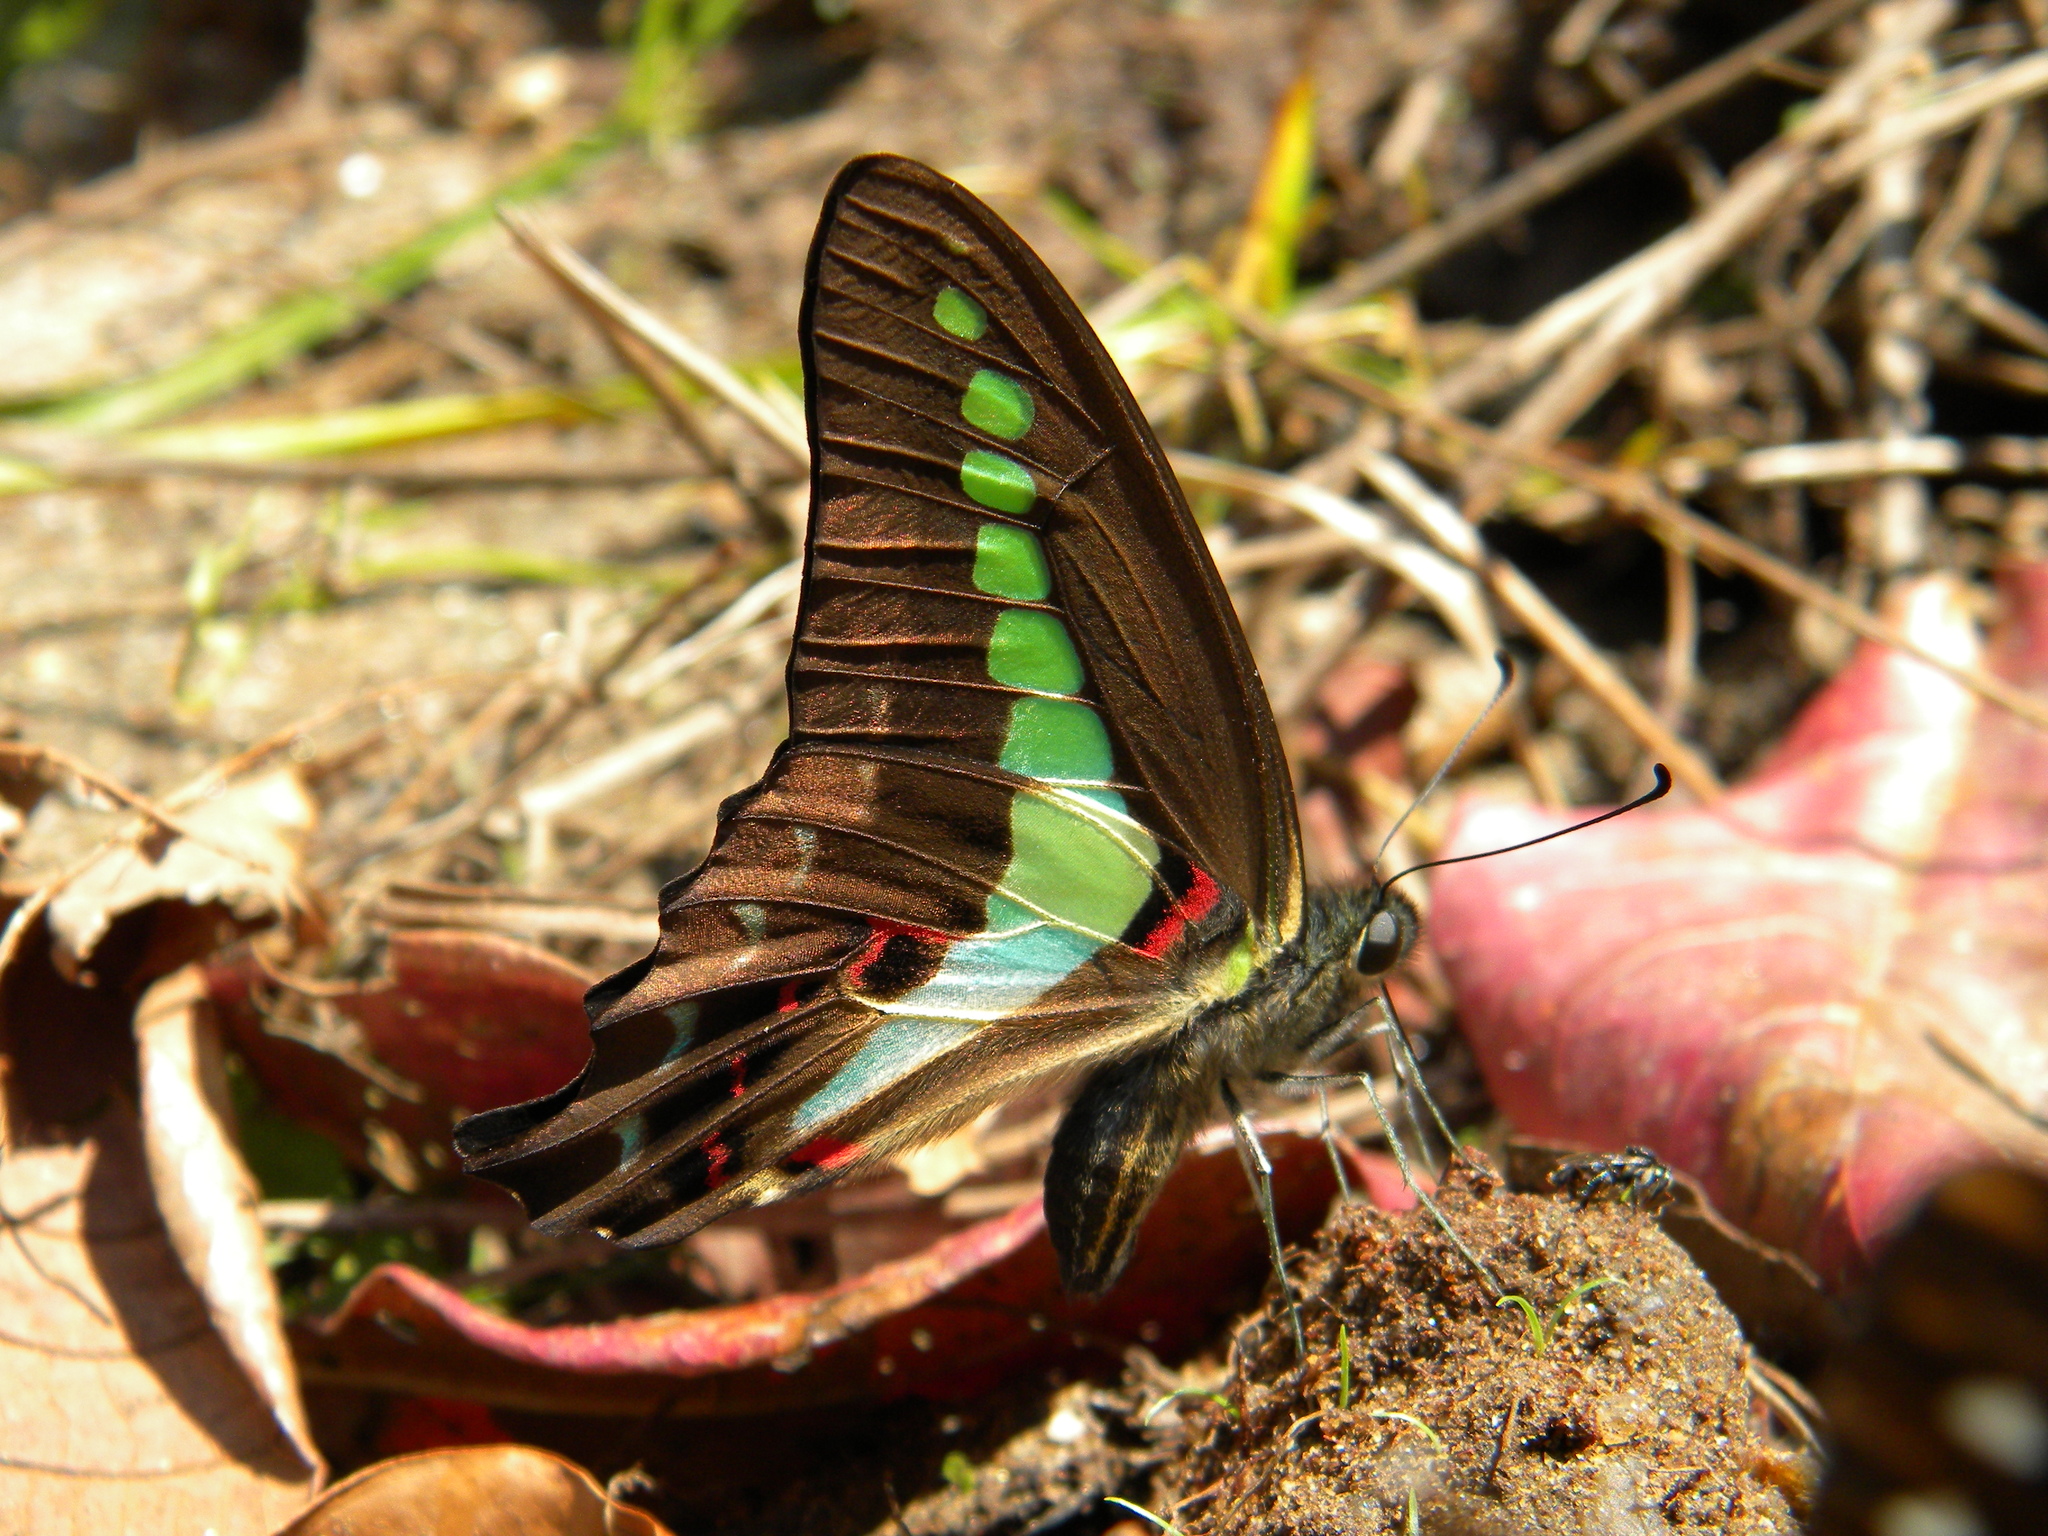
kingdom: Animalia
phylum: Arthropoda
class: Insecta
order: Lepidoptera
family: Papilionidae
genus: Graphium
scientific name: Graphium
